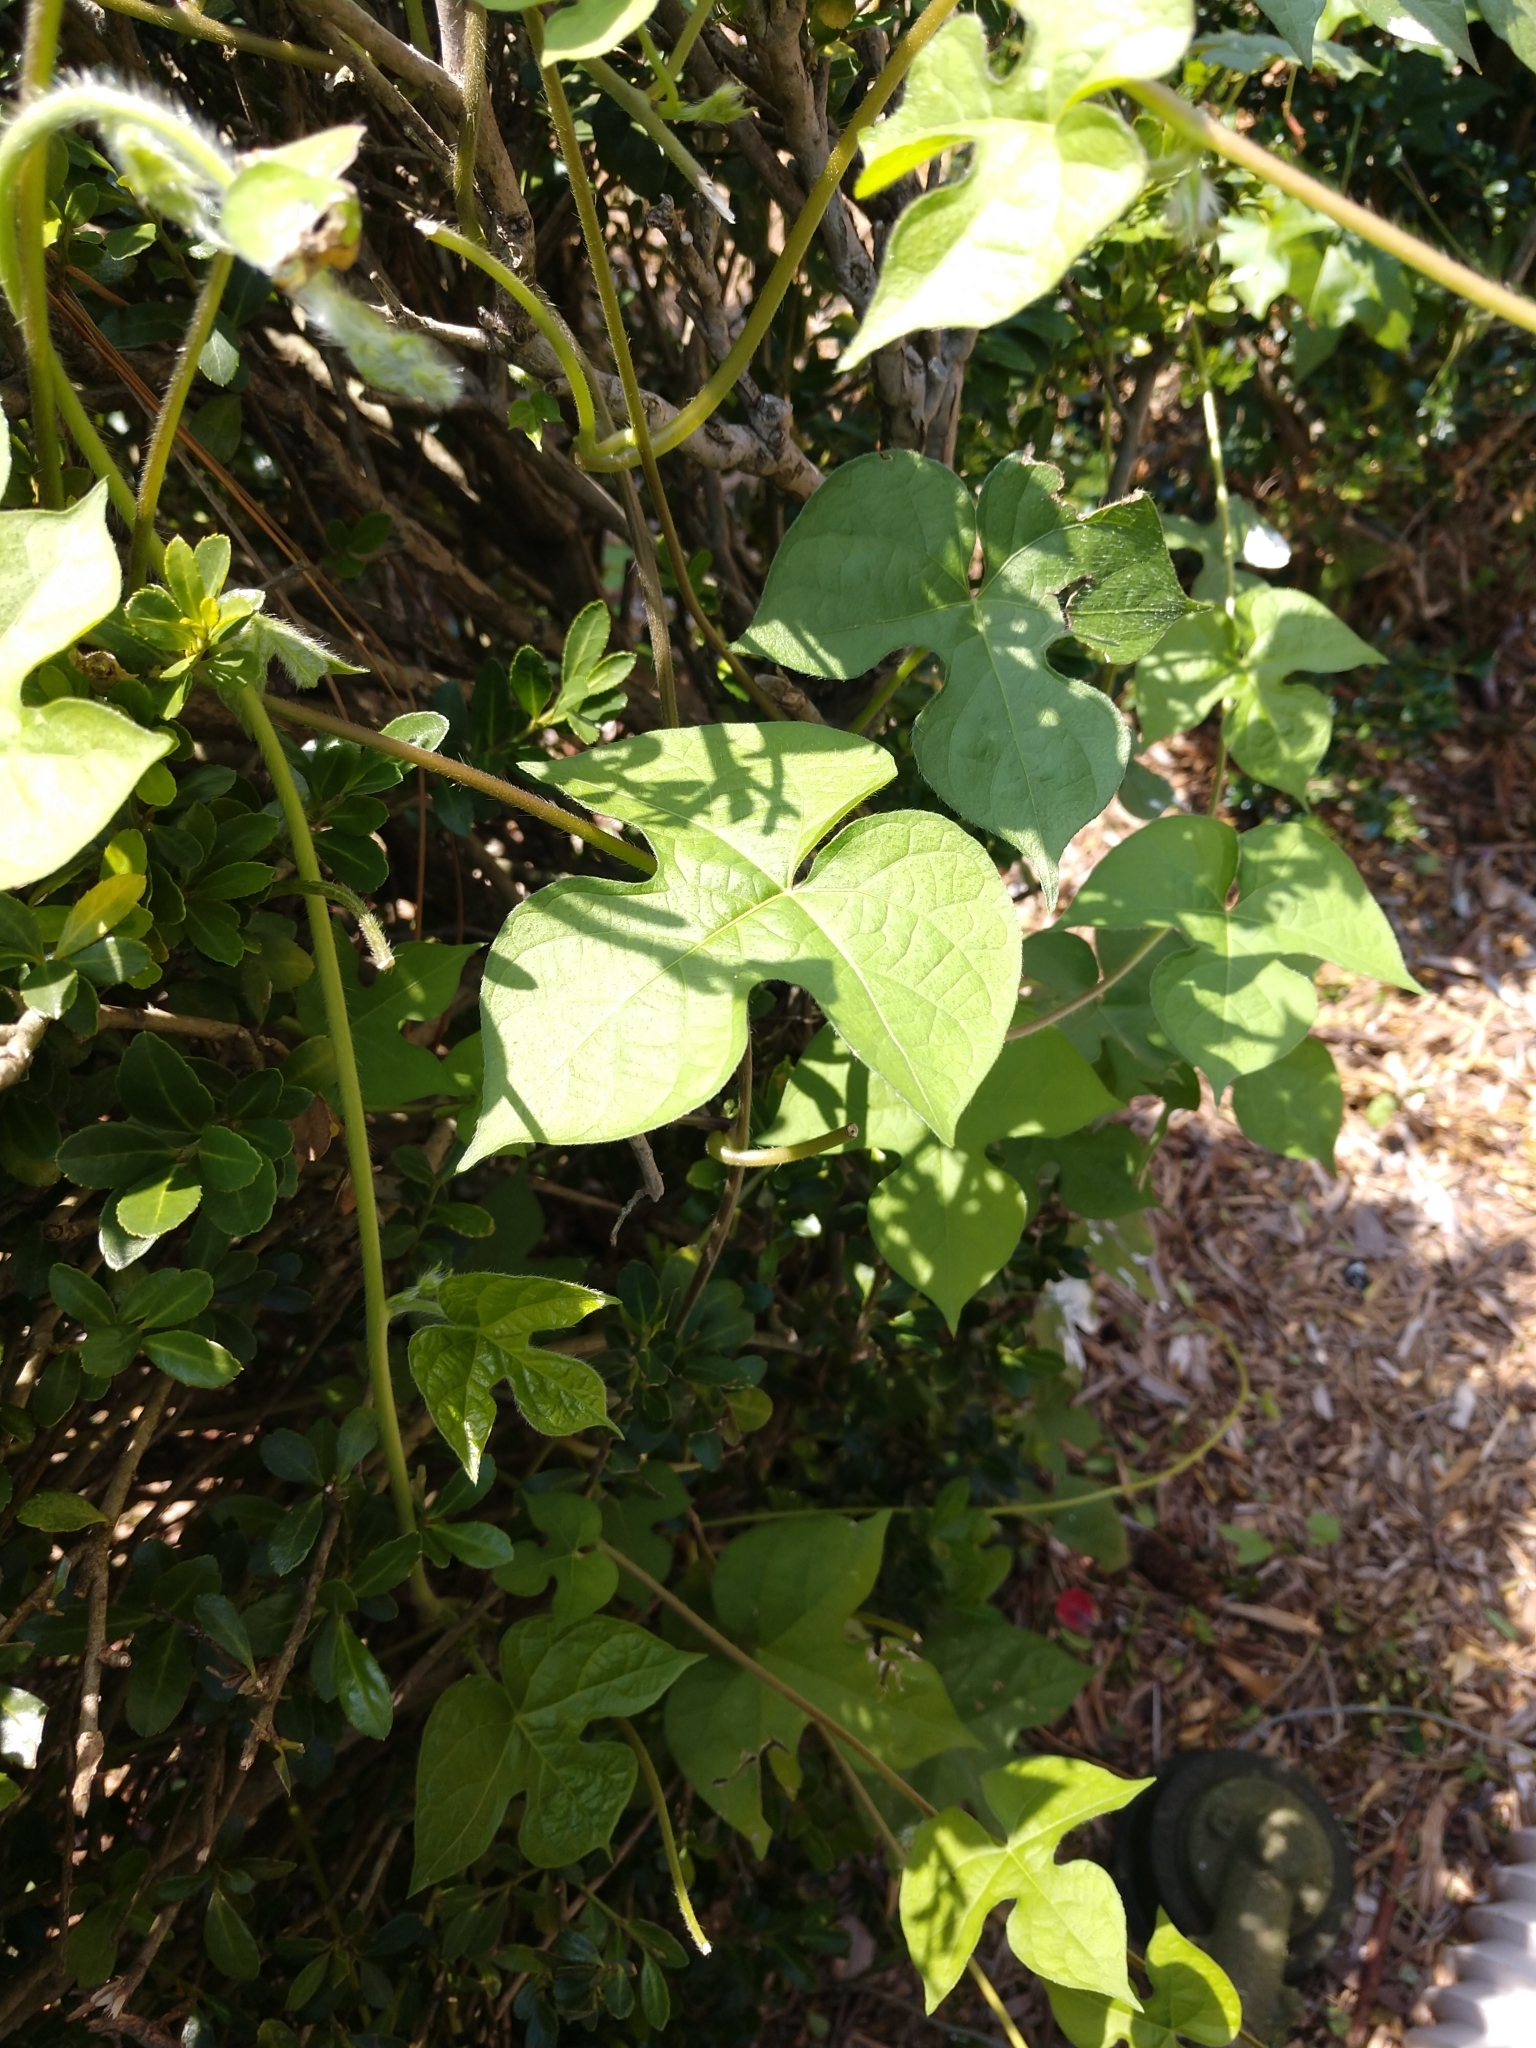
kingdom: Plantae
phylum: Tracheophyta
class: Magnoliopsida
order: Solanales
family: Convolvulaceae
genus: Ipomoea
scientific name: Ipomoea hederacea
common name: Ivy-leaved morning-glory
